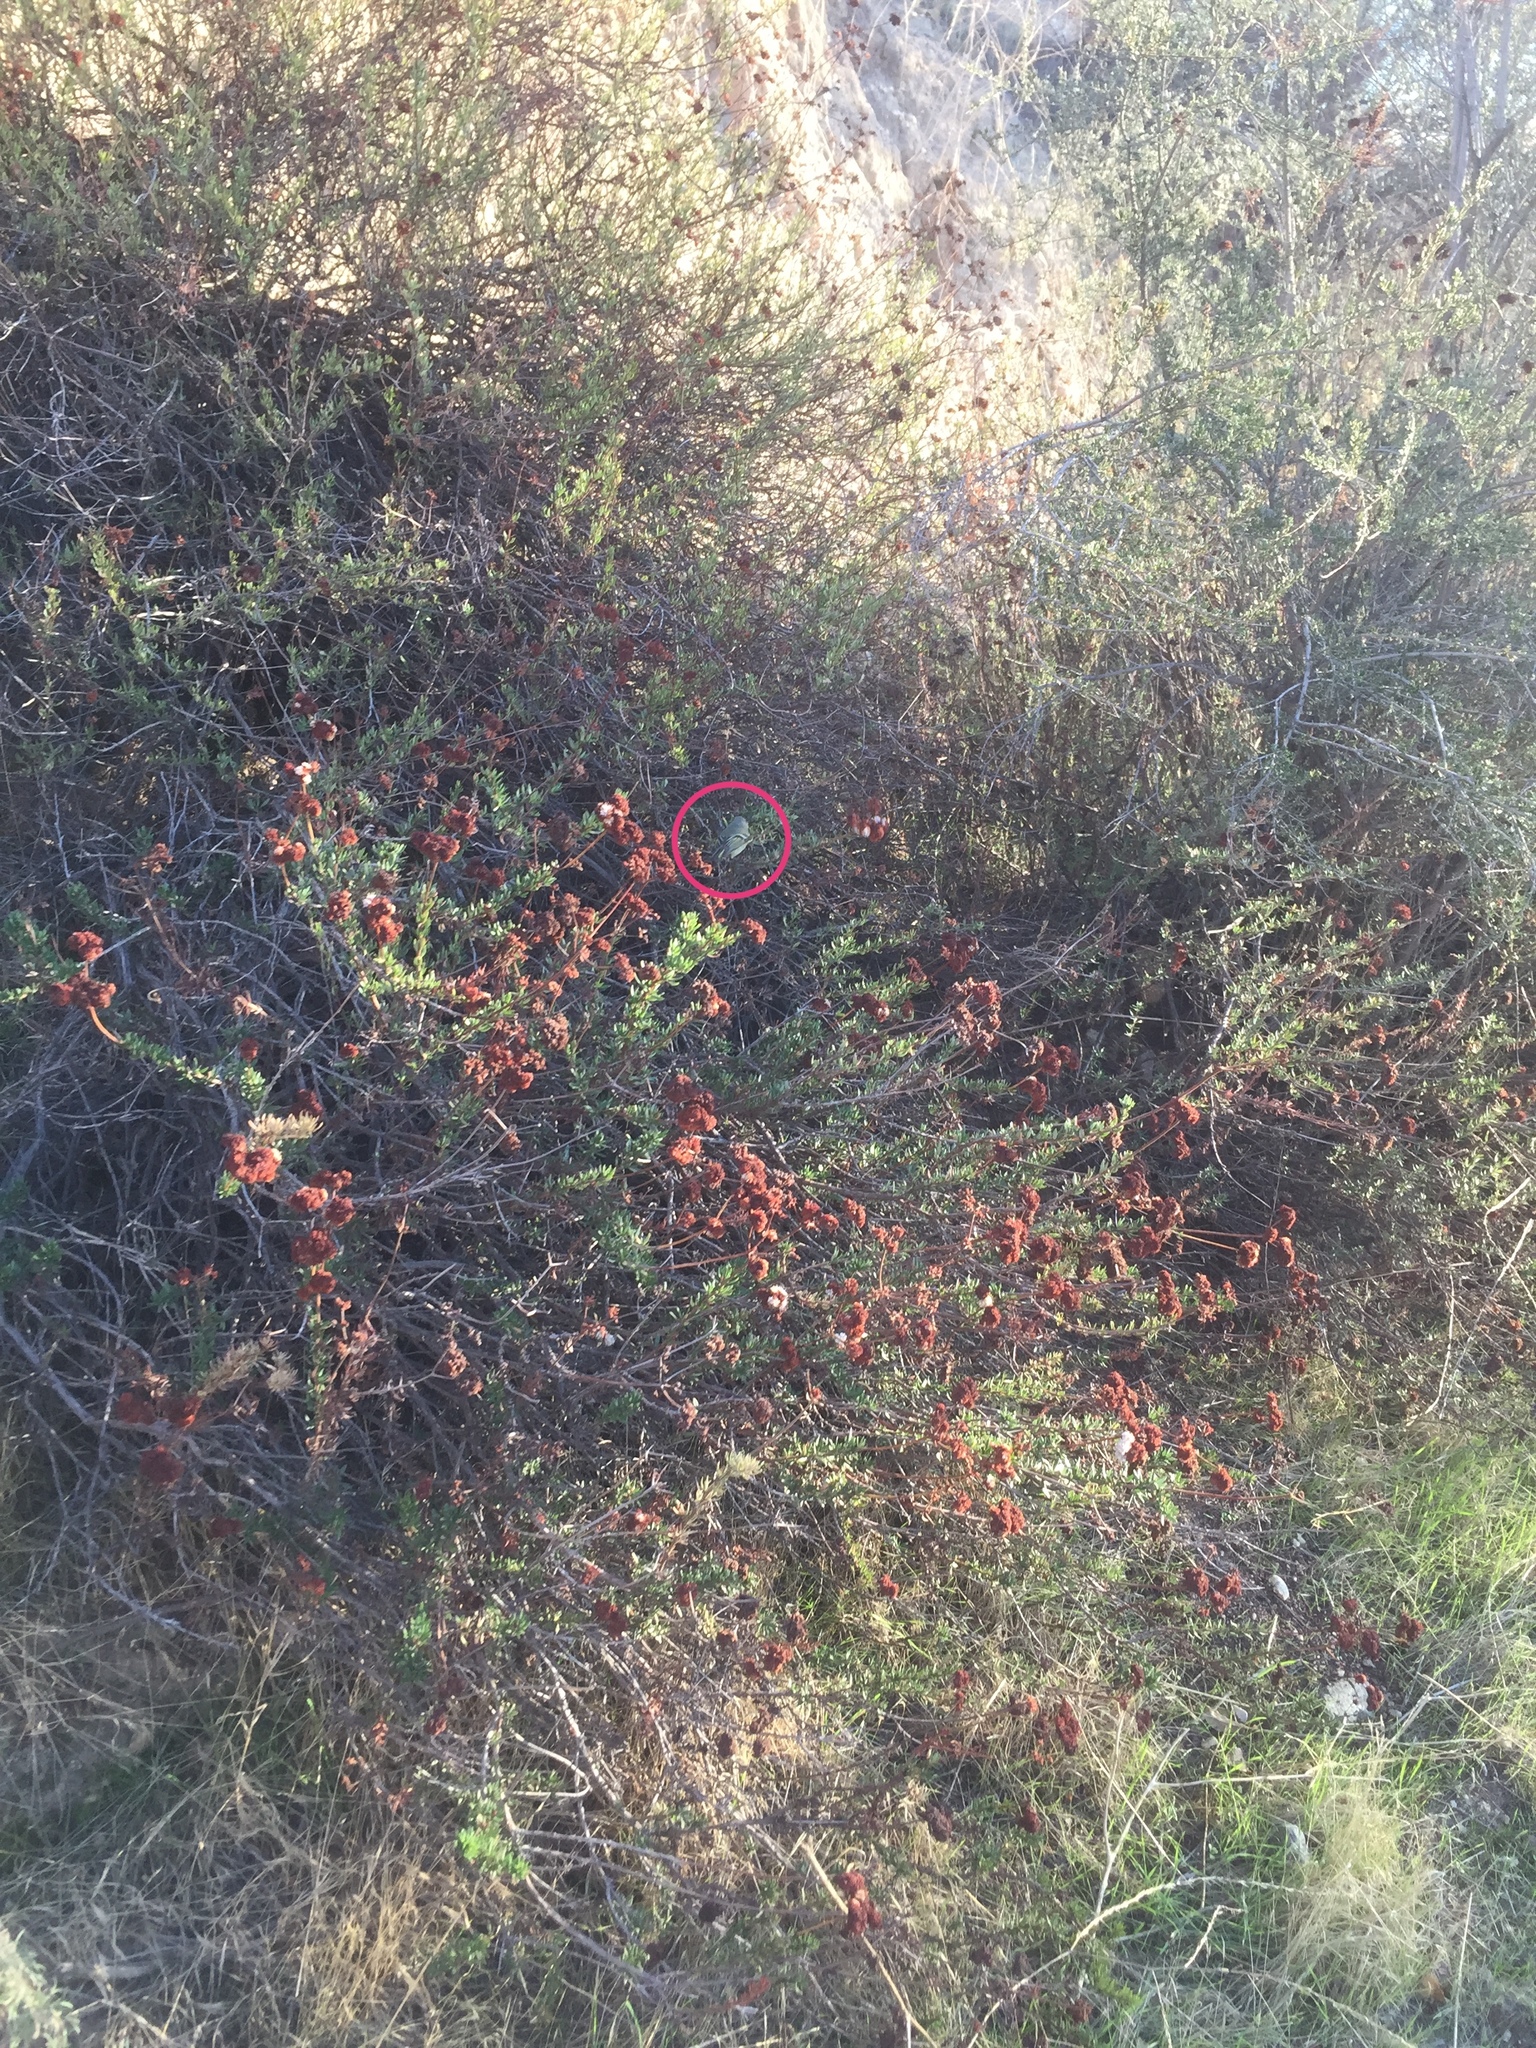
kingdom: Animalia
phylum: Chordata
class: Aves
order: Passeriformes
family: Regulidae
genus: Regulus
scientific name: Regulus calendula
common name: Ruby-crowned kinglet
